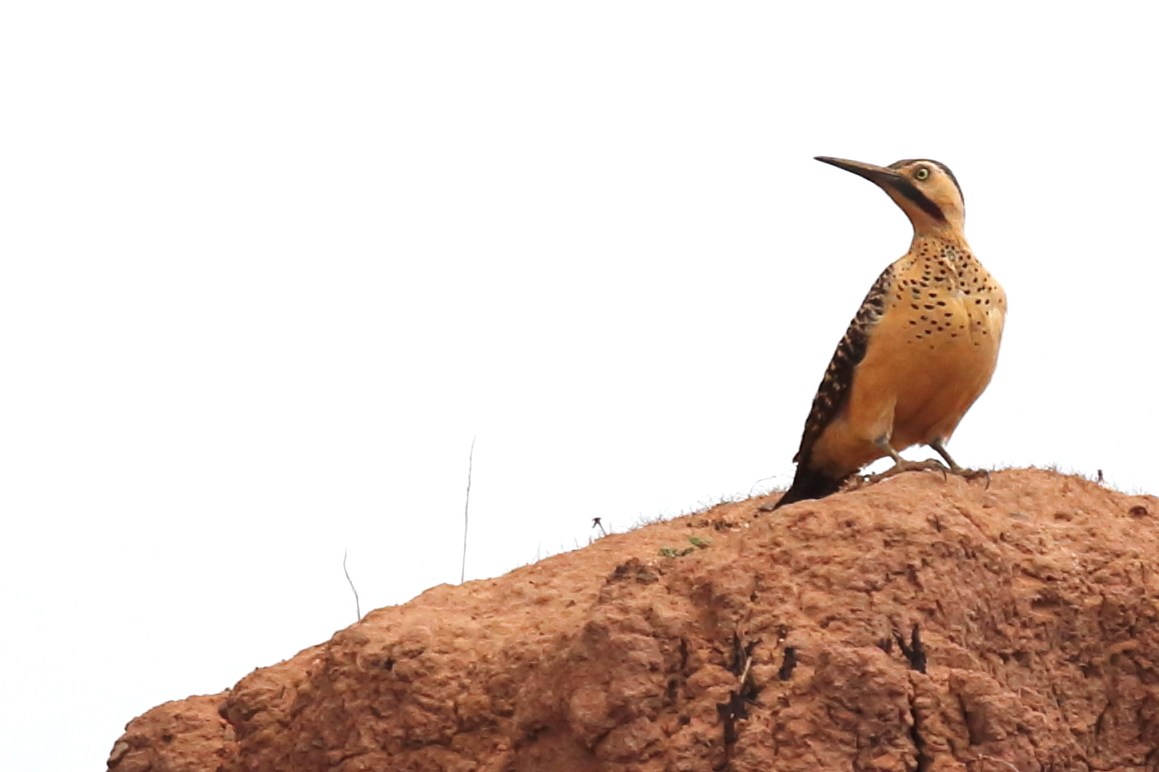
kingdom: Animalia
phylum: Chordata
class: Aves
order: Piciformes
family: Picidae
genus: Colaptes
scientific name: Colaptes rupicola
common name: Andean flicker
